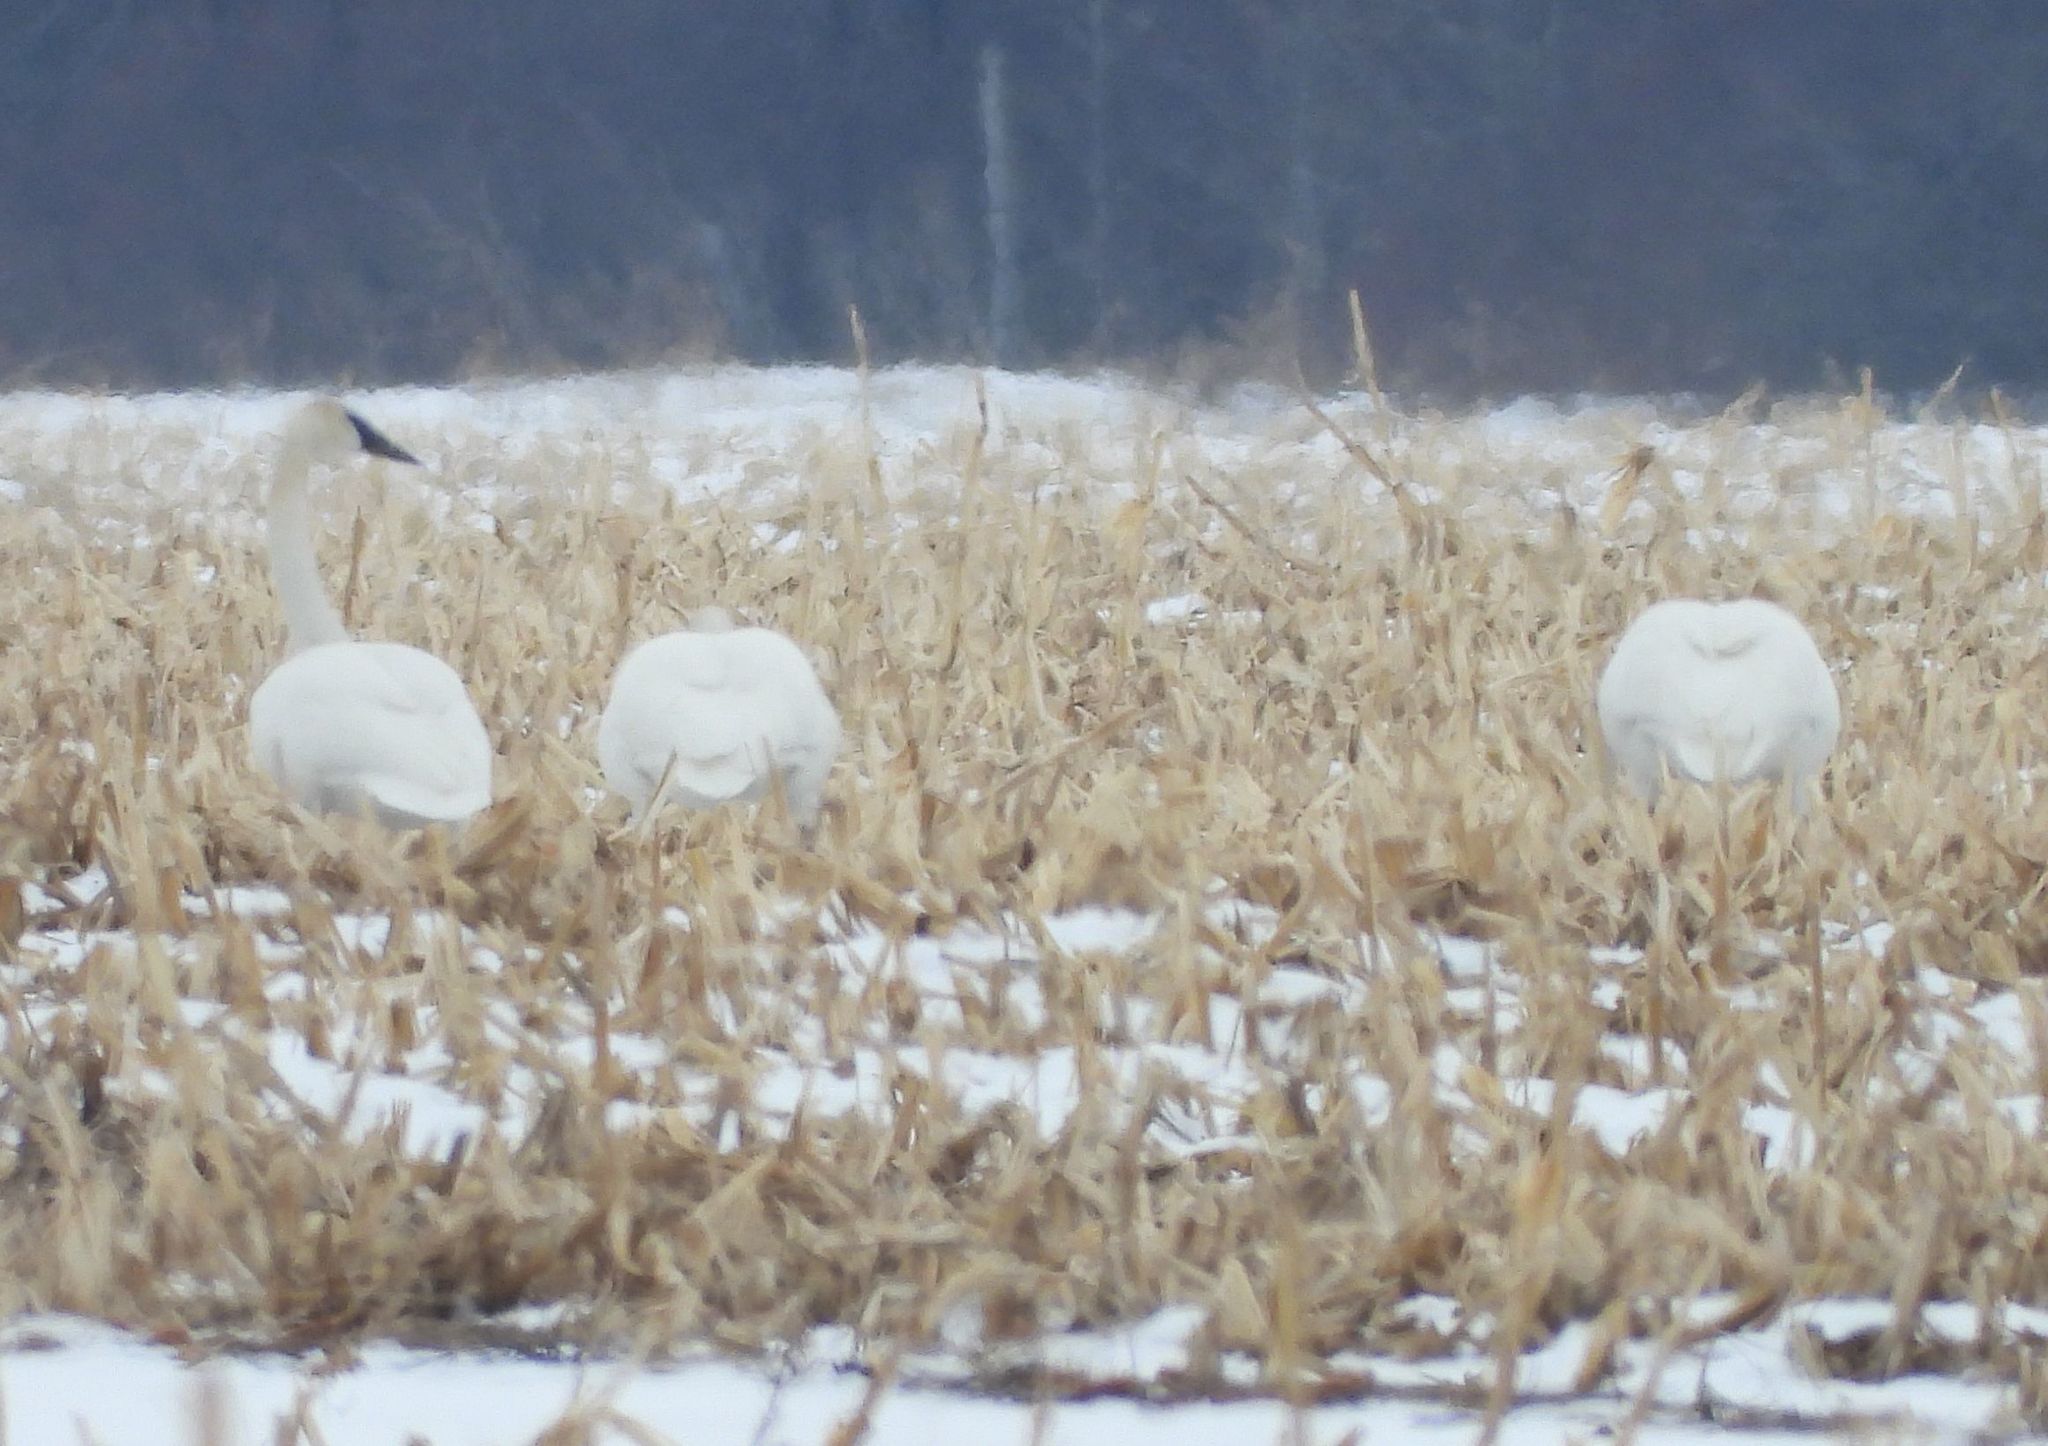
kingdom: Animalia
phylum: Chordata
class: Aves
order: Anseriformes
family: Anatidae
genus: Cygnus
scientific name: Cygnus buccinator
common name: Trumpeter swan
